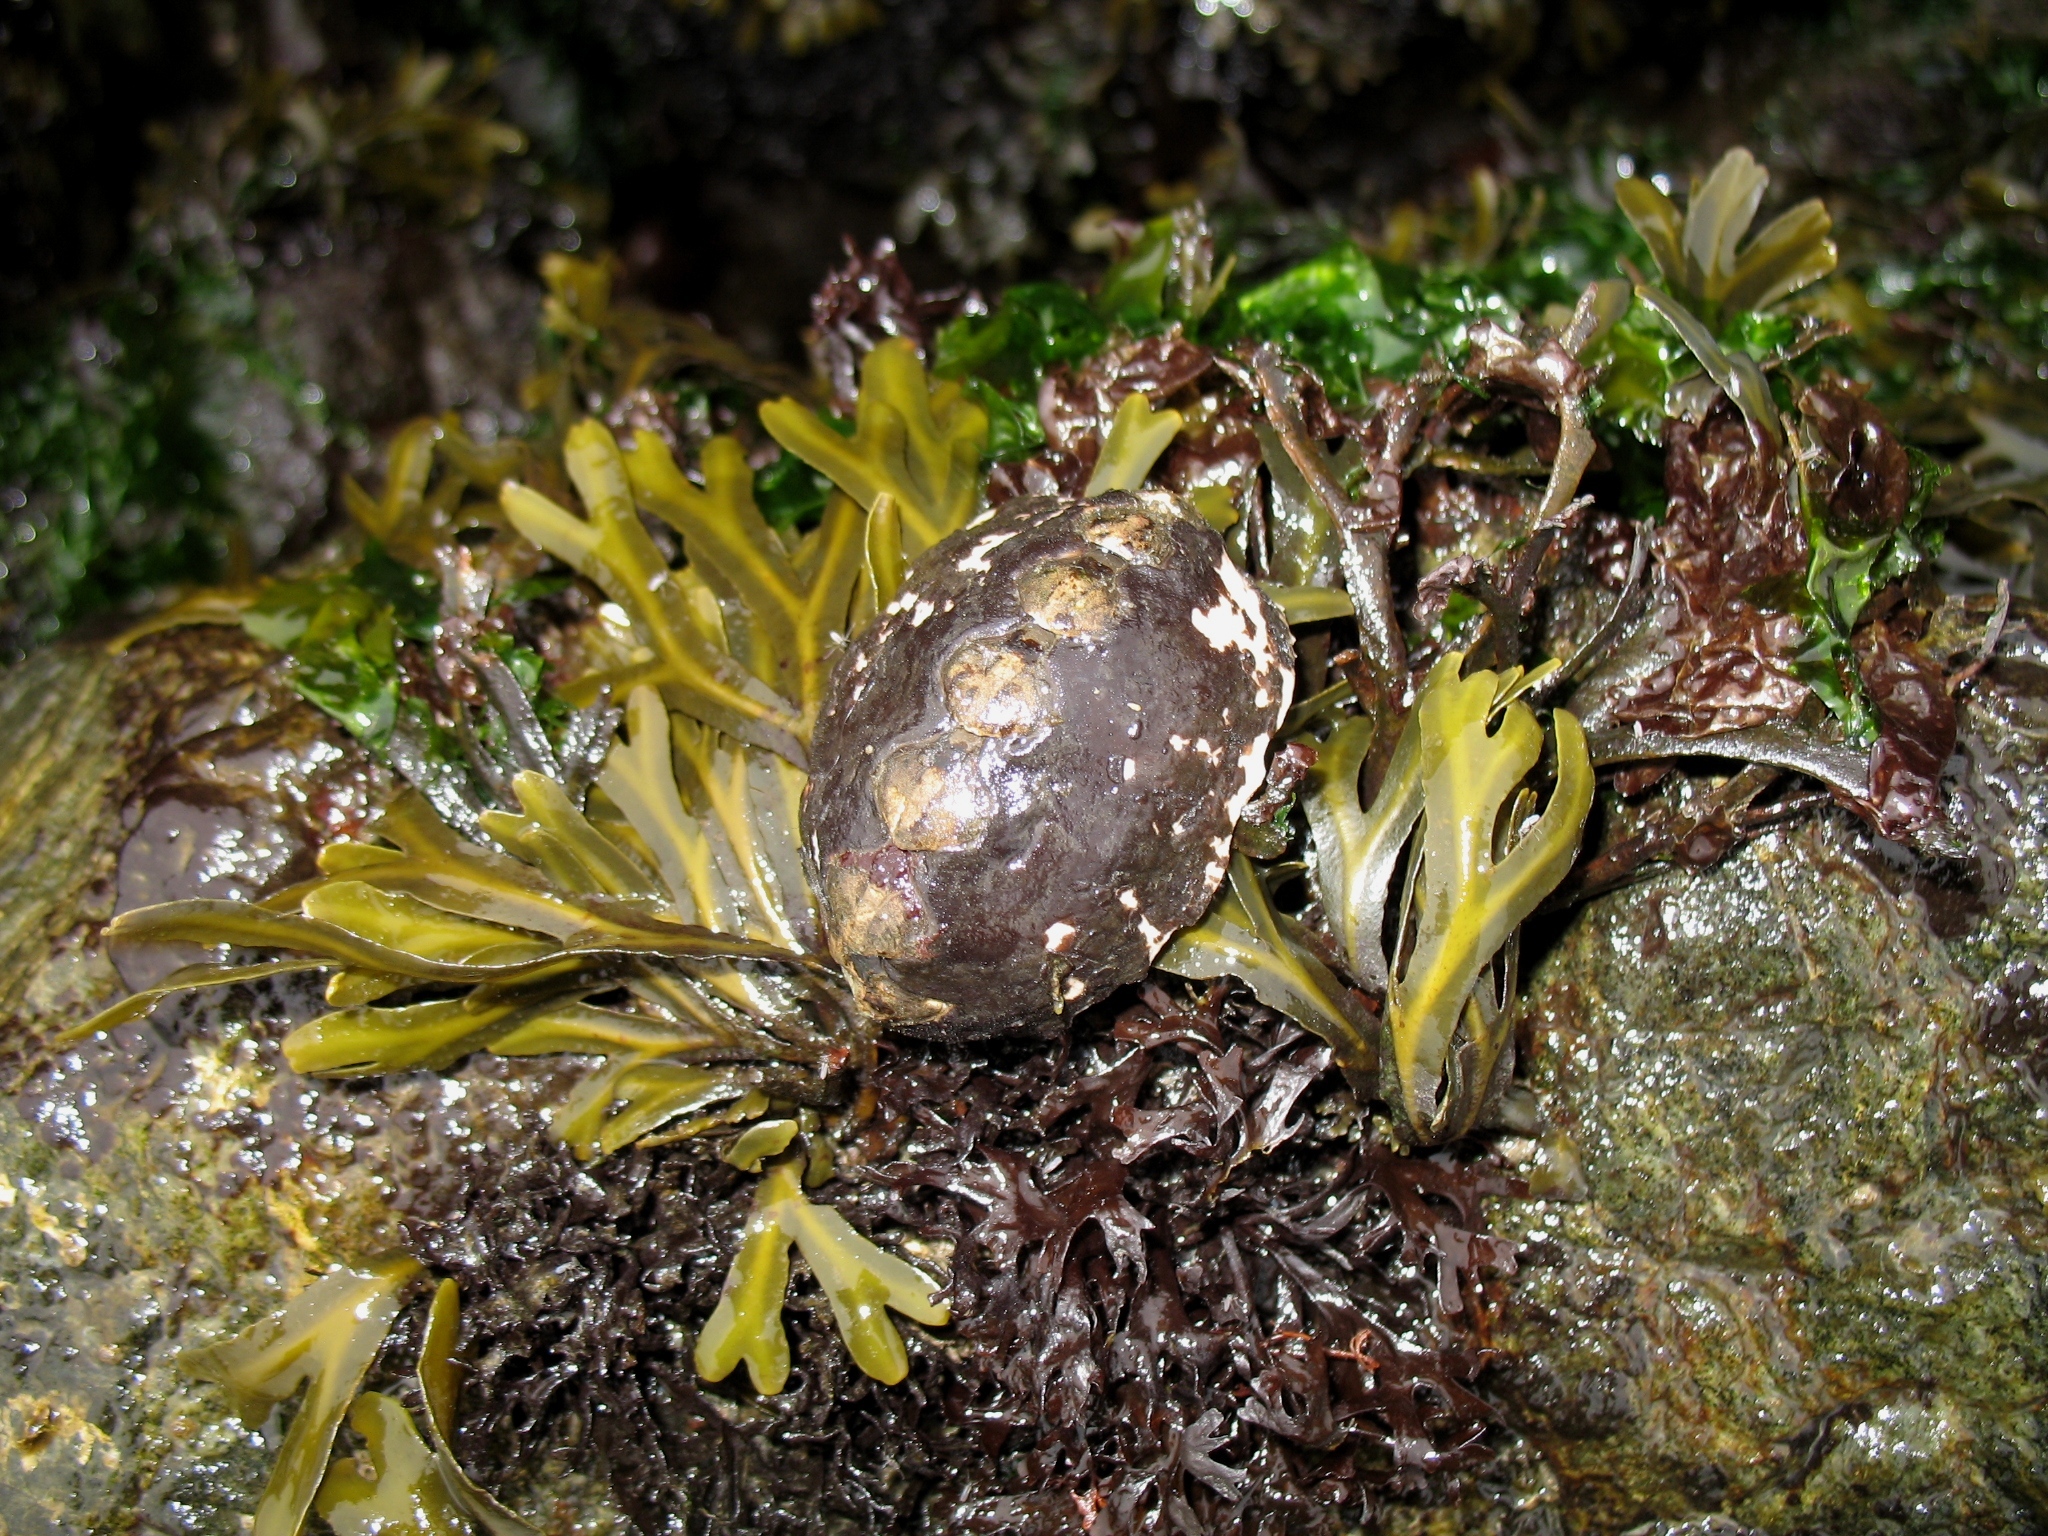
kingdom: Animalia
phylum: Mollusca
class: Polyplacophora
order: Chitonida
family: Mopaliidae
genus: Katharina
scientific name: Katharina tunicata
